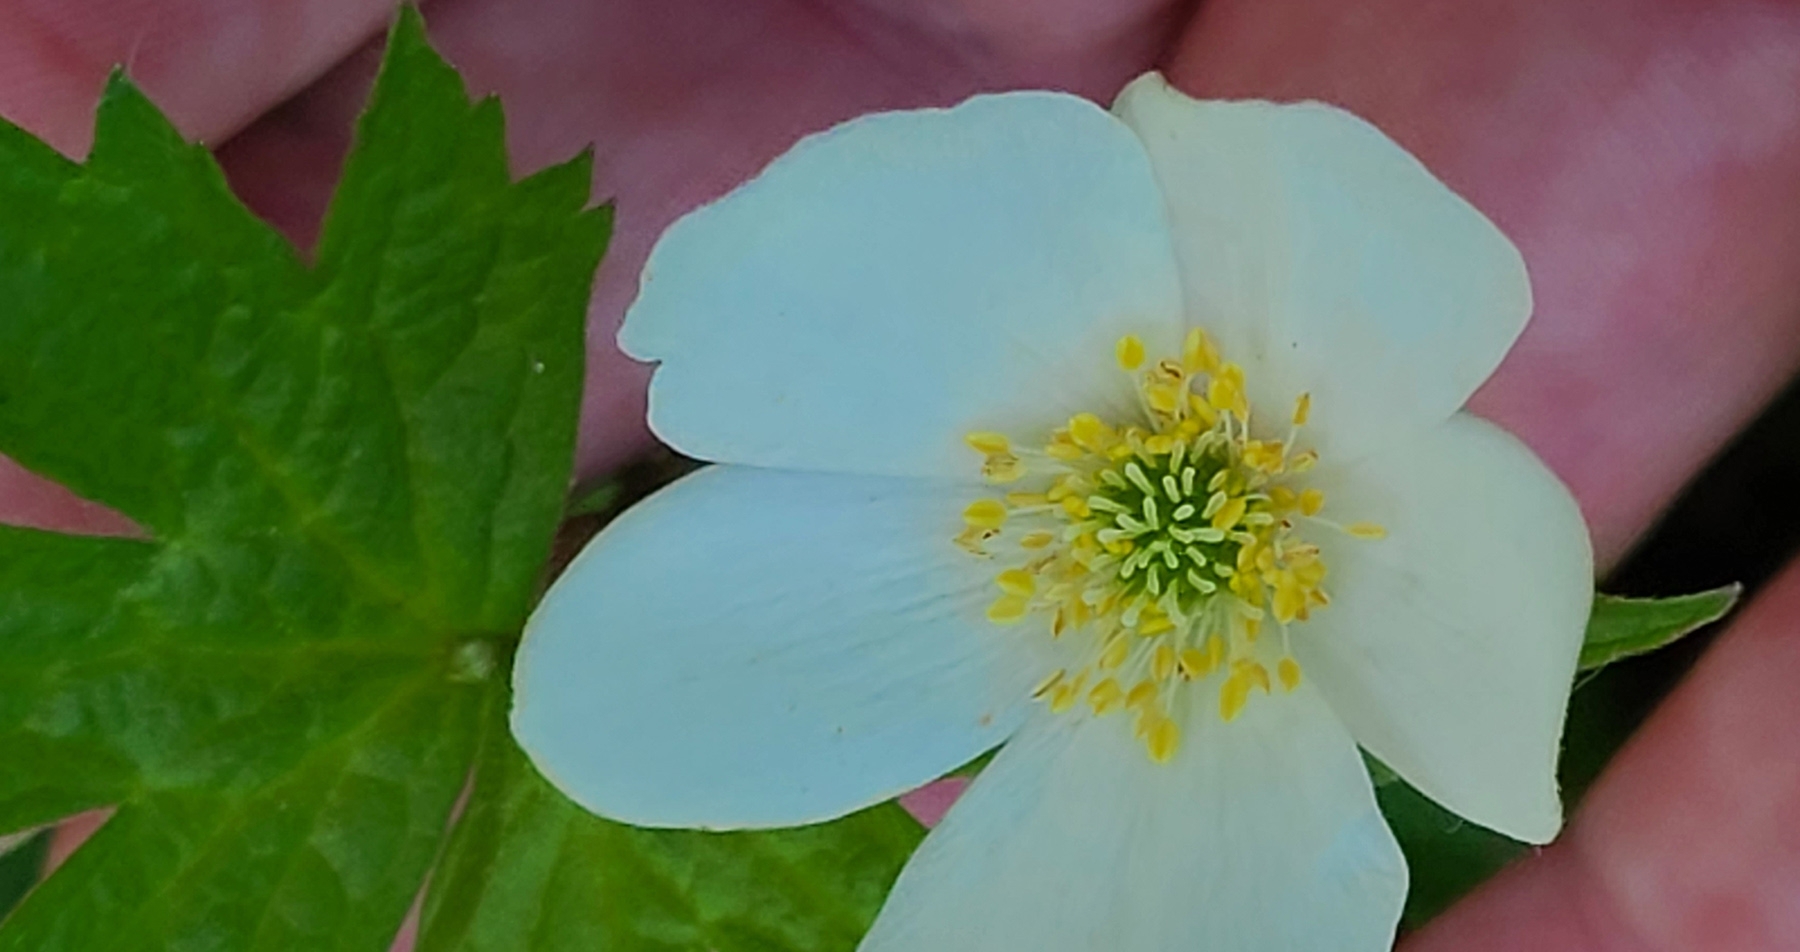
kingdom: Plantae
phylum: Tracheophyta
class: Magnoliopsida
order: Ranunculales
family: Ranunculaceae
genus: Anemonastrum
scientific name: Anemonastrum canadense
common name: Canada anemone
